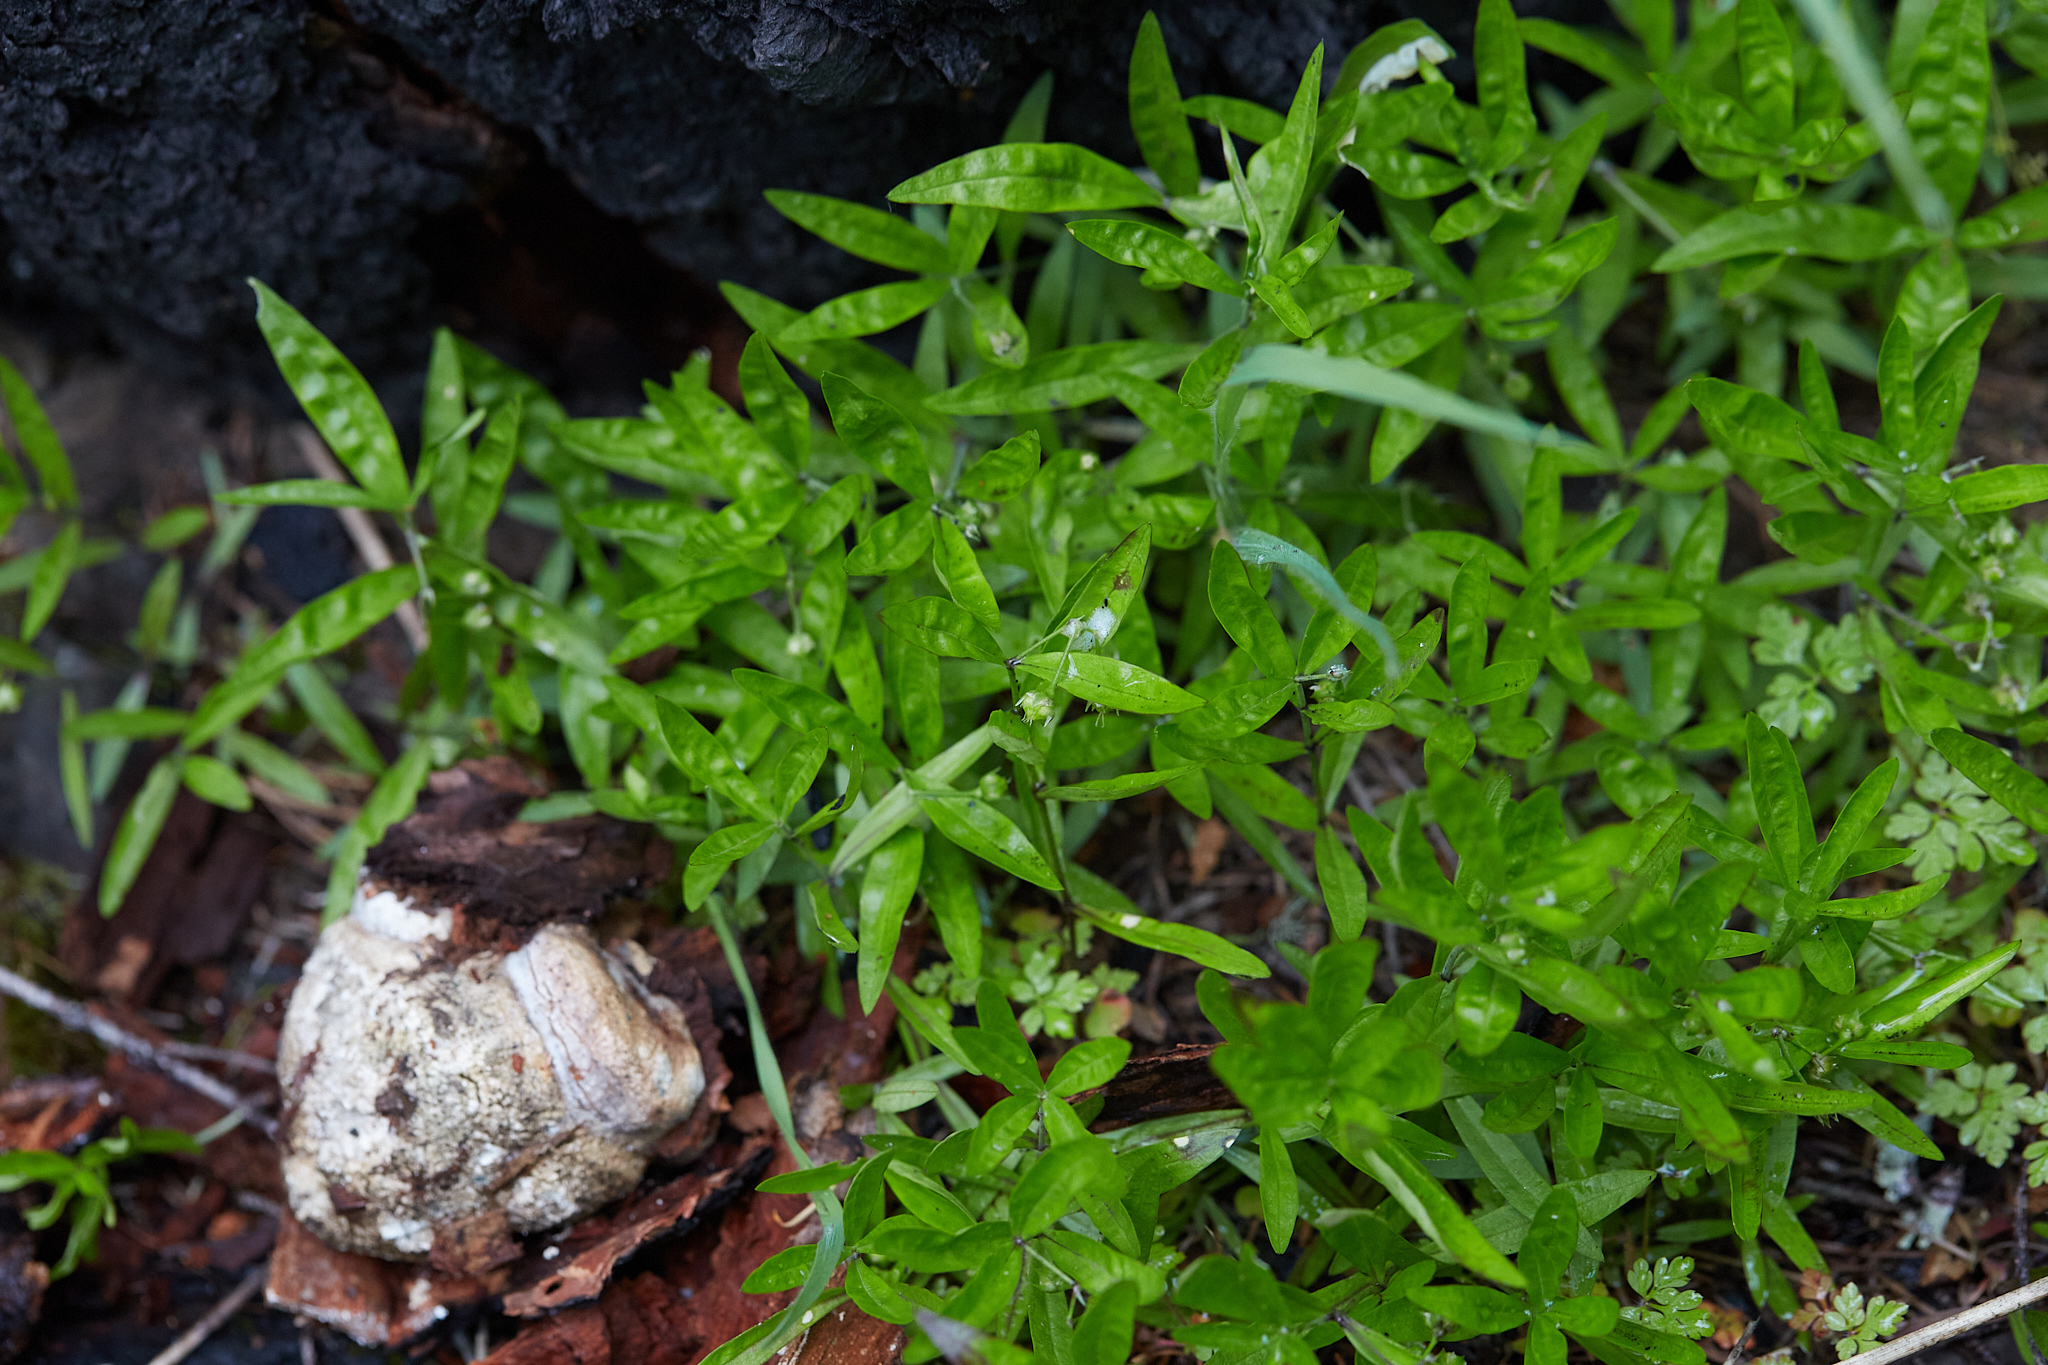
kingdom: Plantae
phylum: Tracheophyta
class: Magnoliopsida
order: Caryophyllales
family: Caryophyllaceae
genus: Moehringia
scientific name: Moehringia macrophylla
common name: Big-leaf sandwort
